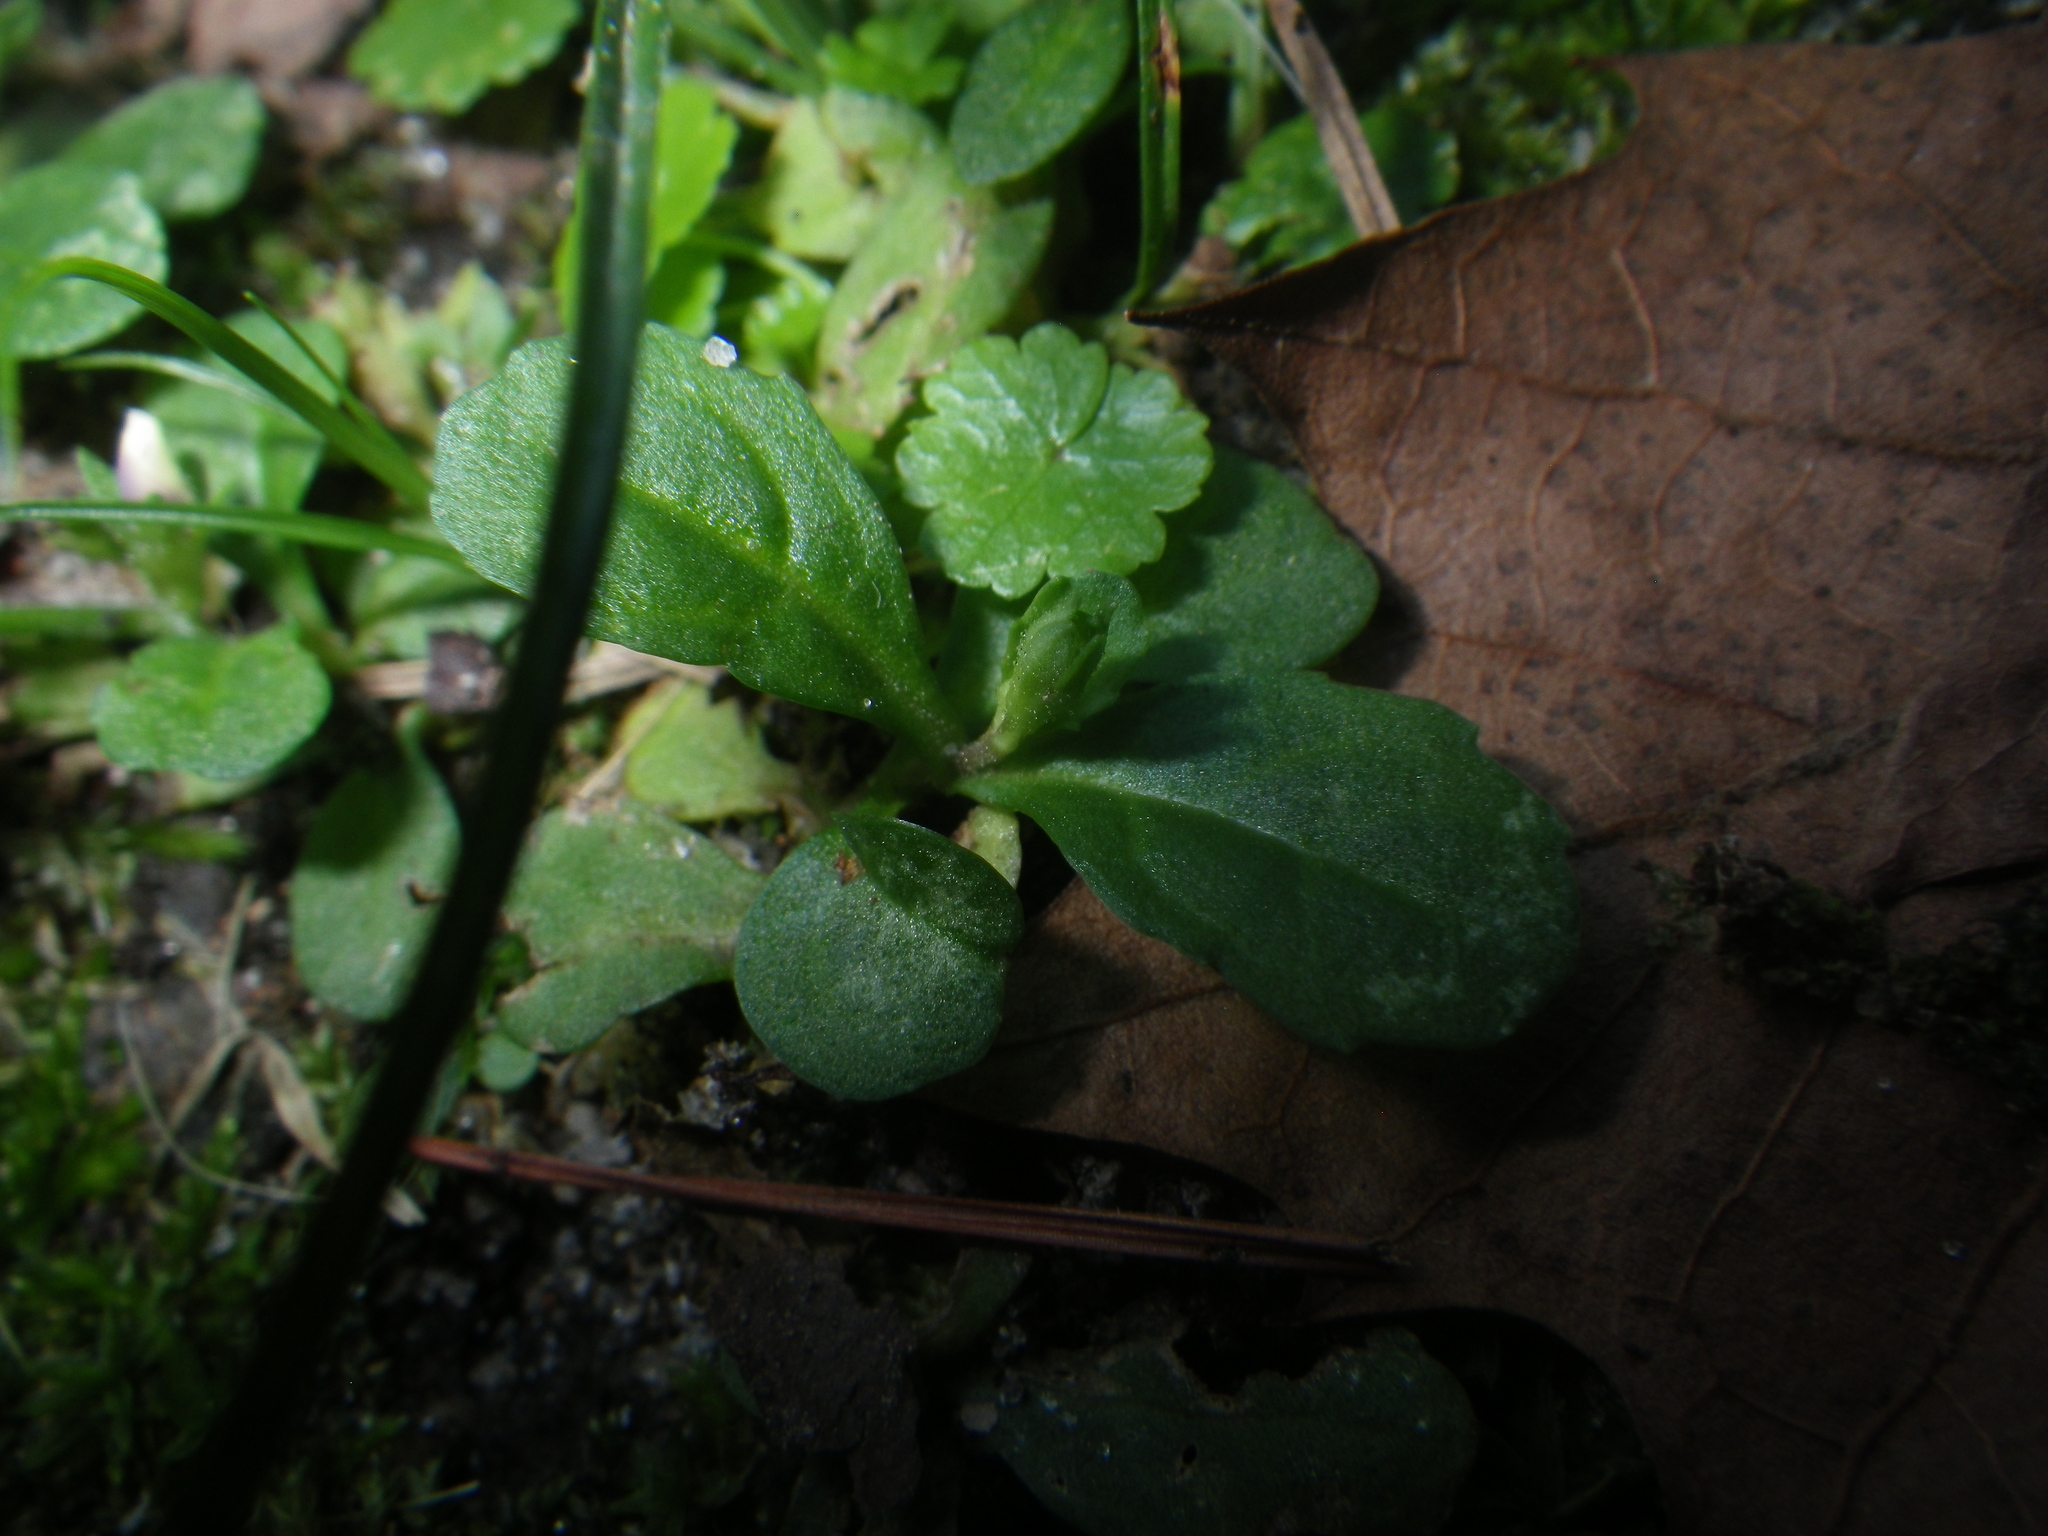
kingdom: Plantae
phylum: Tracheophyta
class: Magnoliopsida
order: Lamiales
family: Mazaceae
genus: Mazus
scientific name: Mazus pumilus
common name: Japanese mazus
